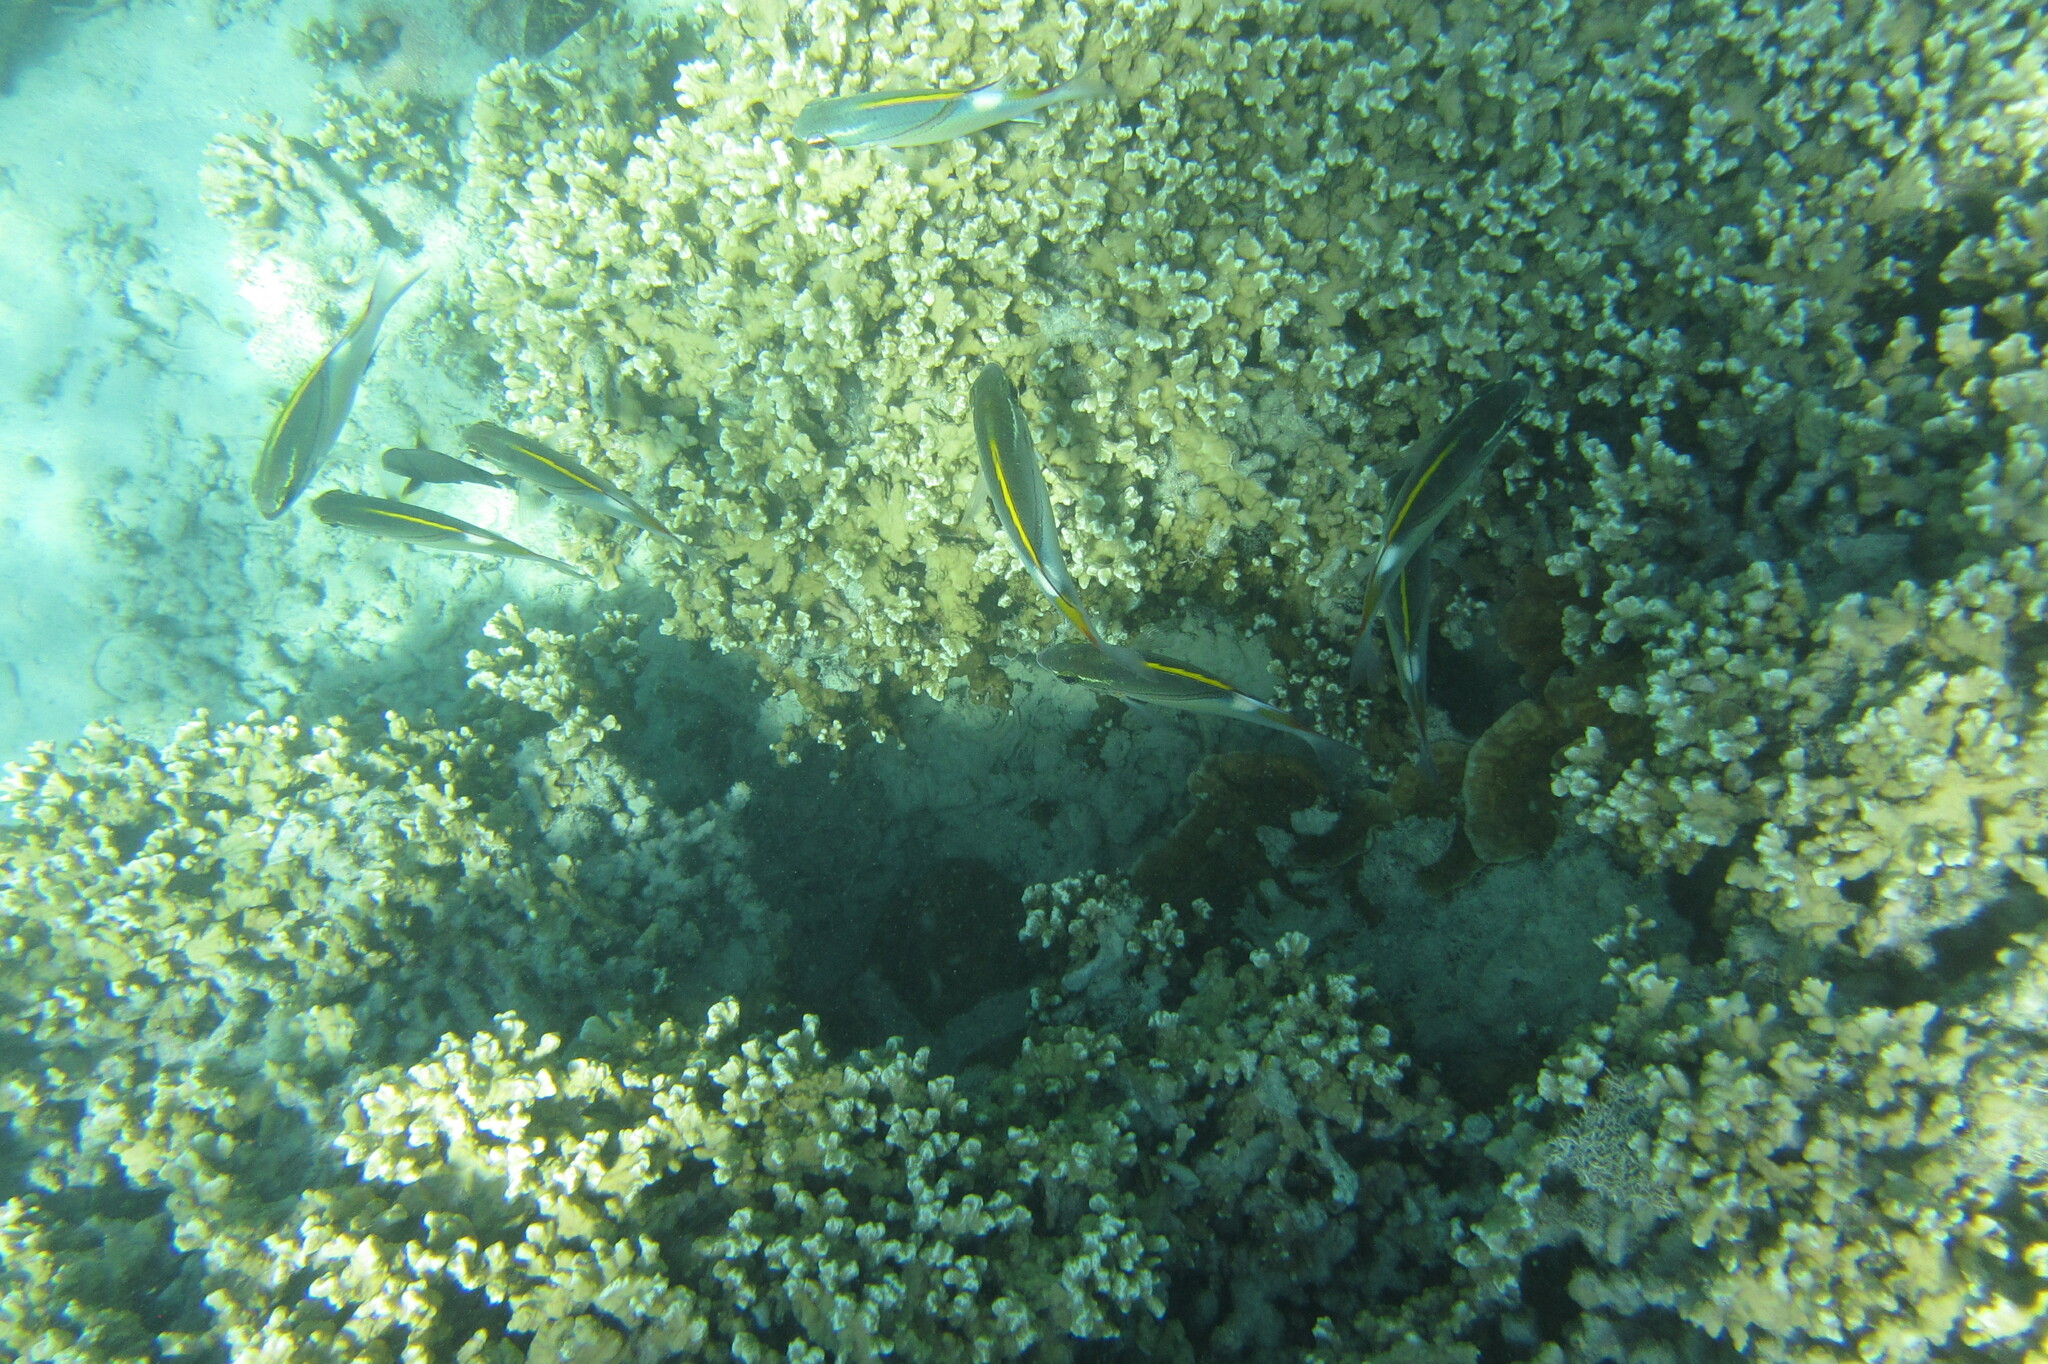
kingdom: Animalia
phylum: Chordata
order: Perciformes
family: Nemipteridae
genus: Scolopsis
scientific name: Scolopsis bilineata
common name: Two-lined monocle bream
